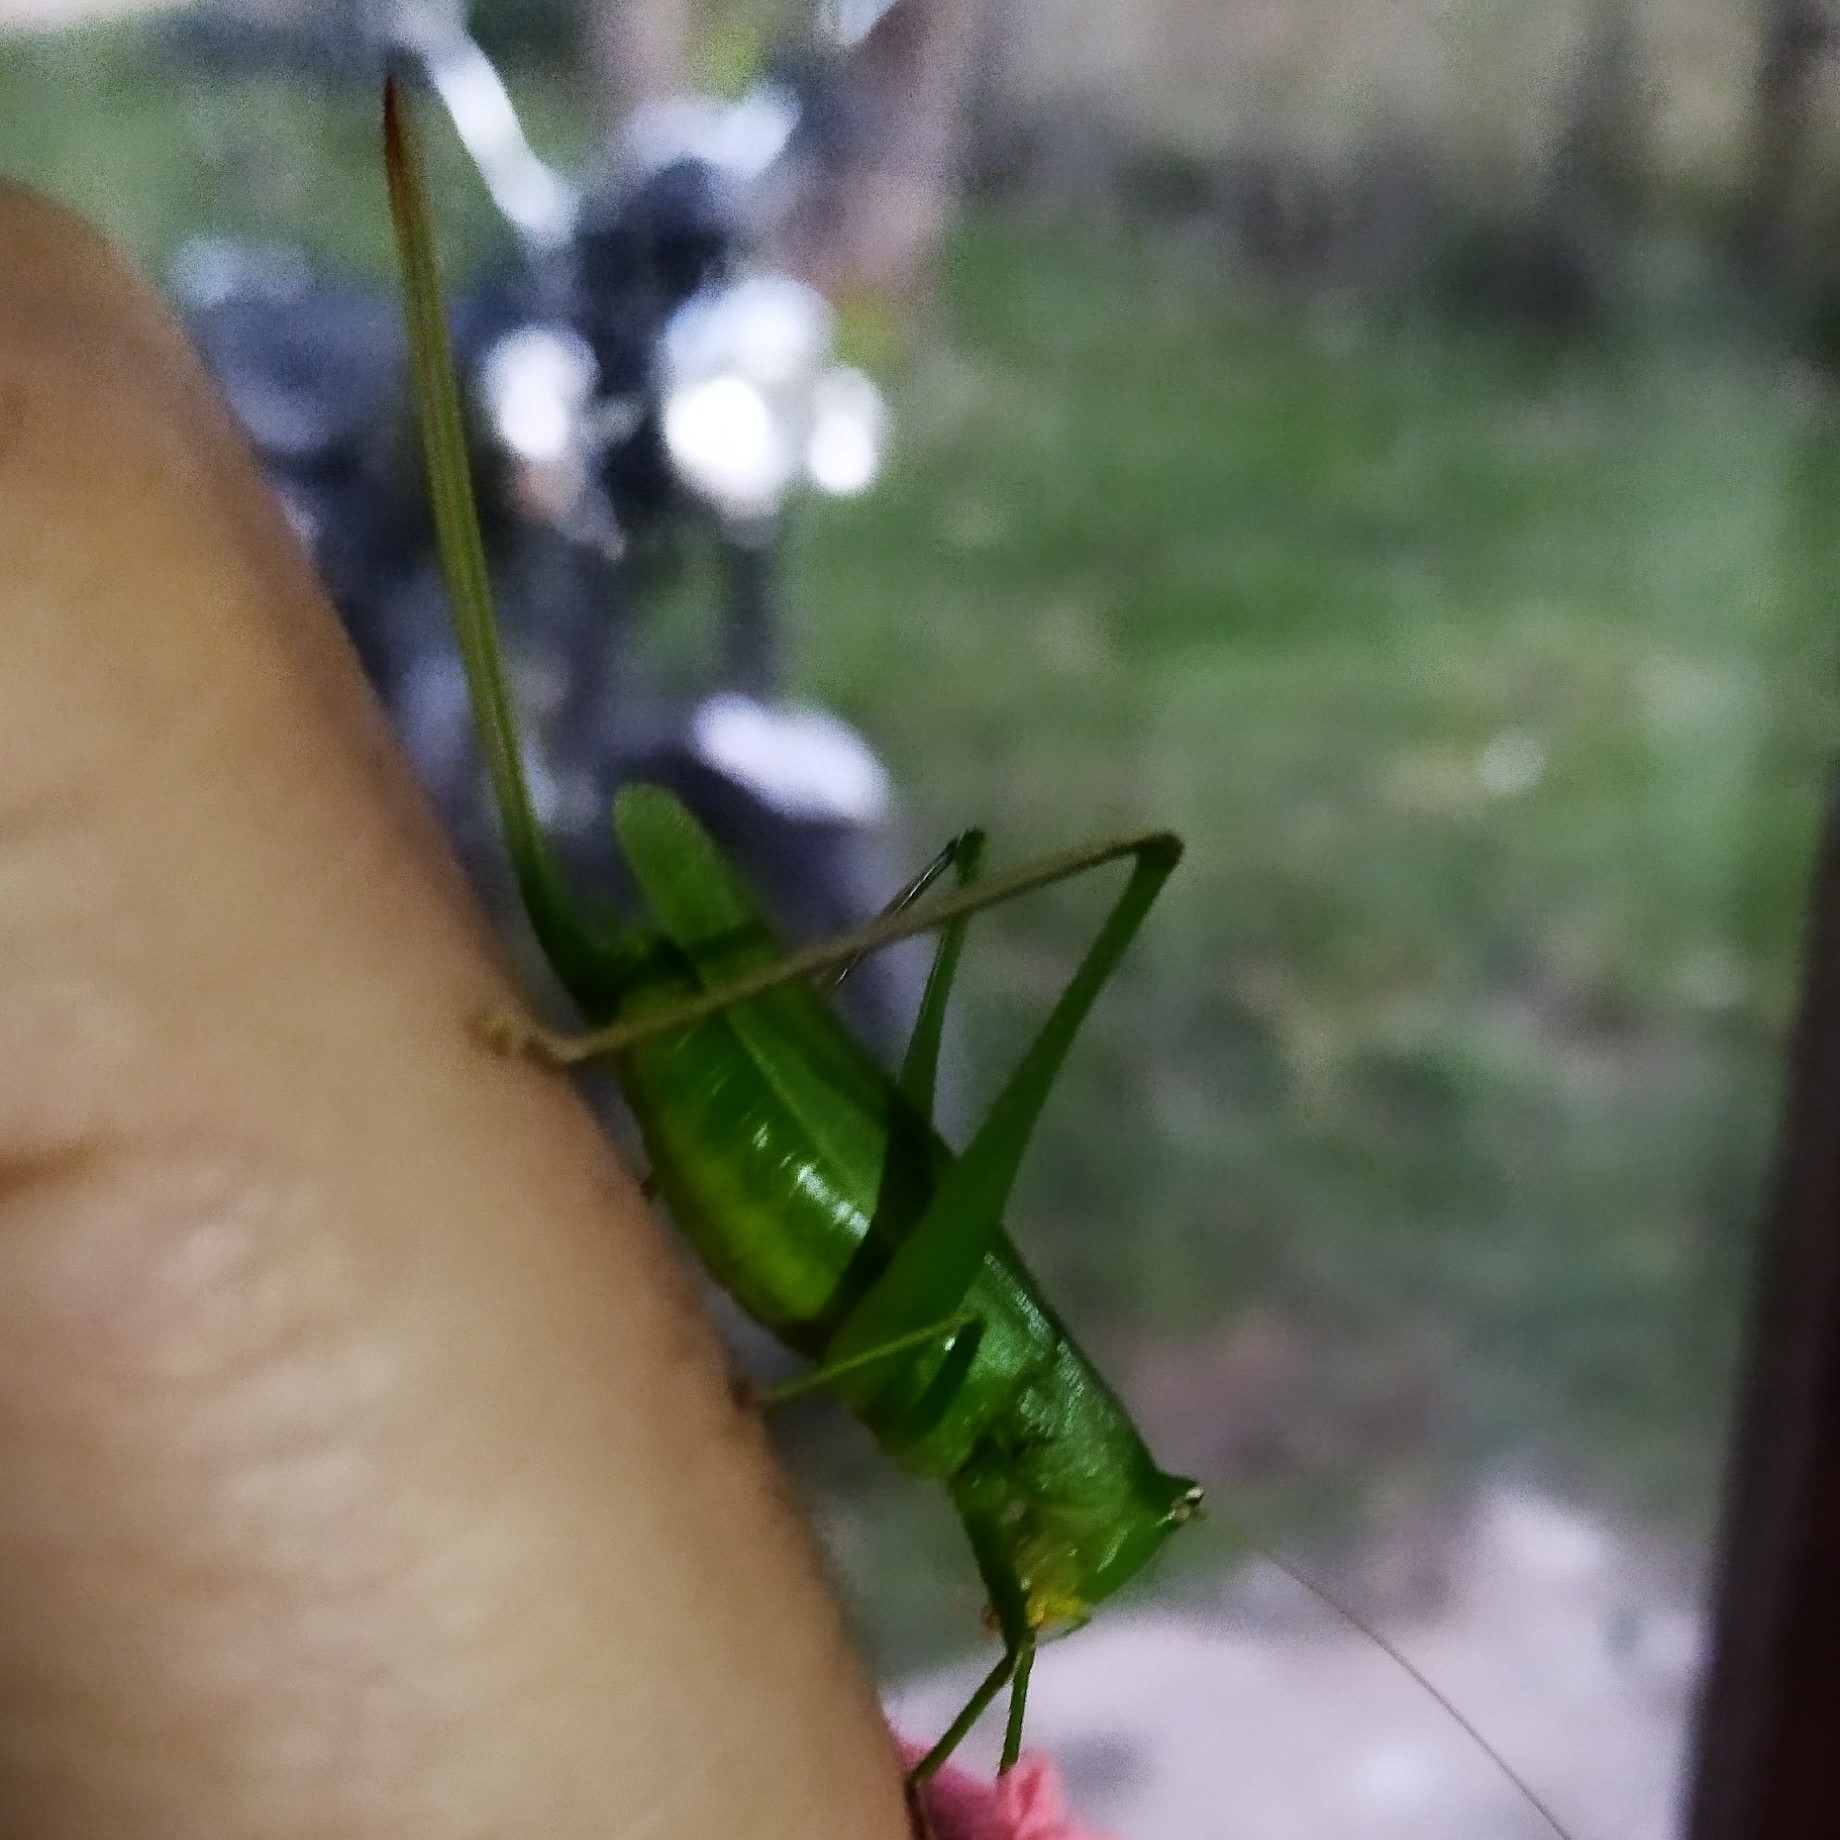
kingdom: Animalia
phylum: Arthropoda
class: Insecta
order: Orthoptera
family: Tettigoniidae
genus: Neoconocephalus
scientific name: Neoconocephalus brevis
